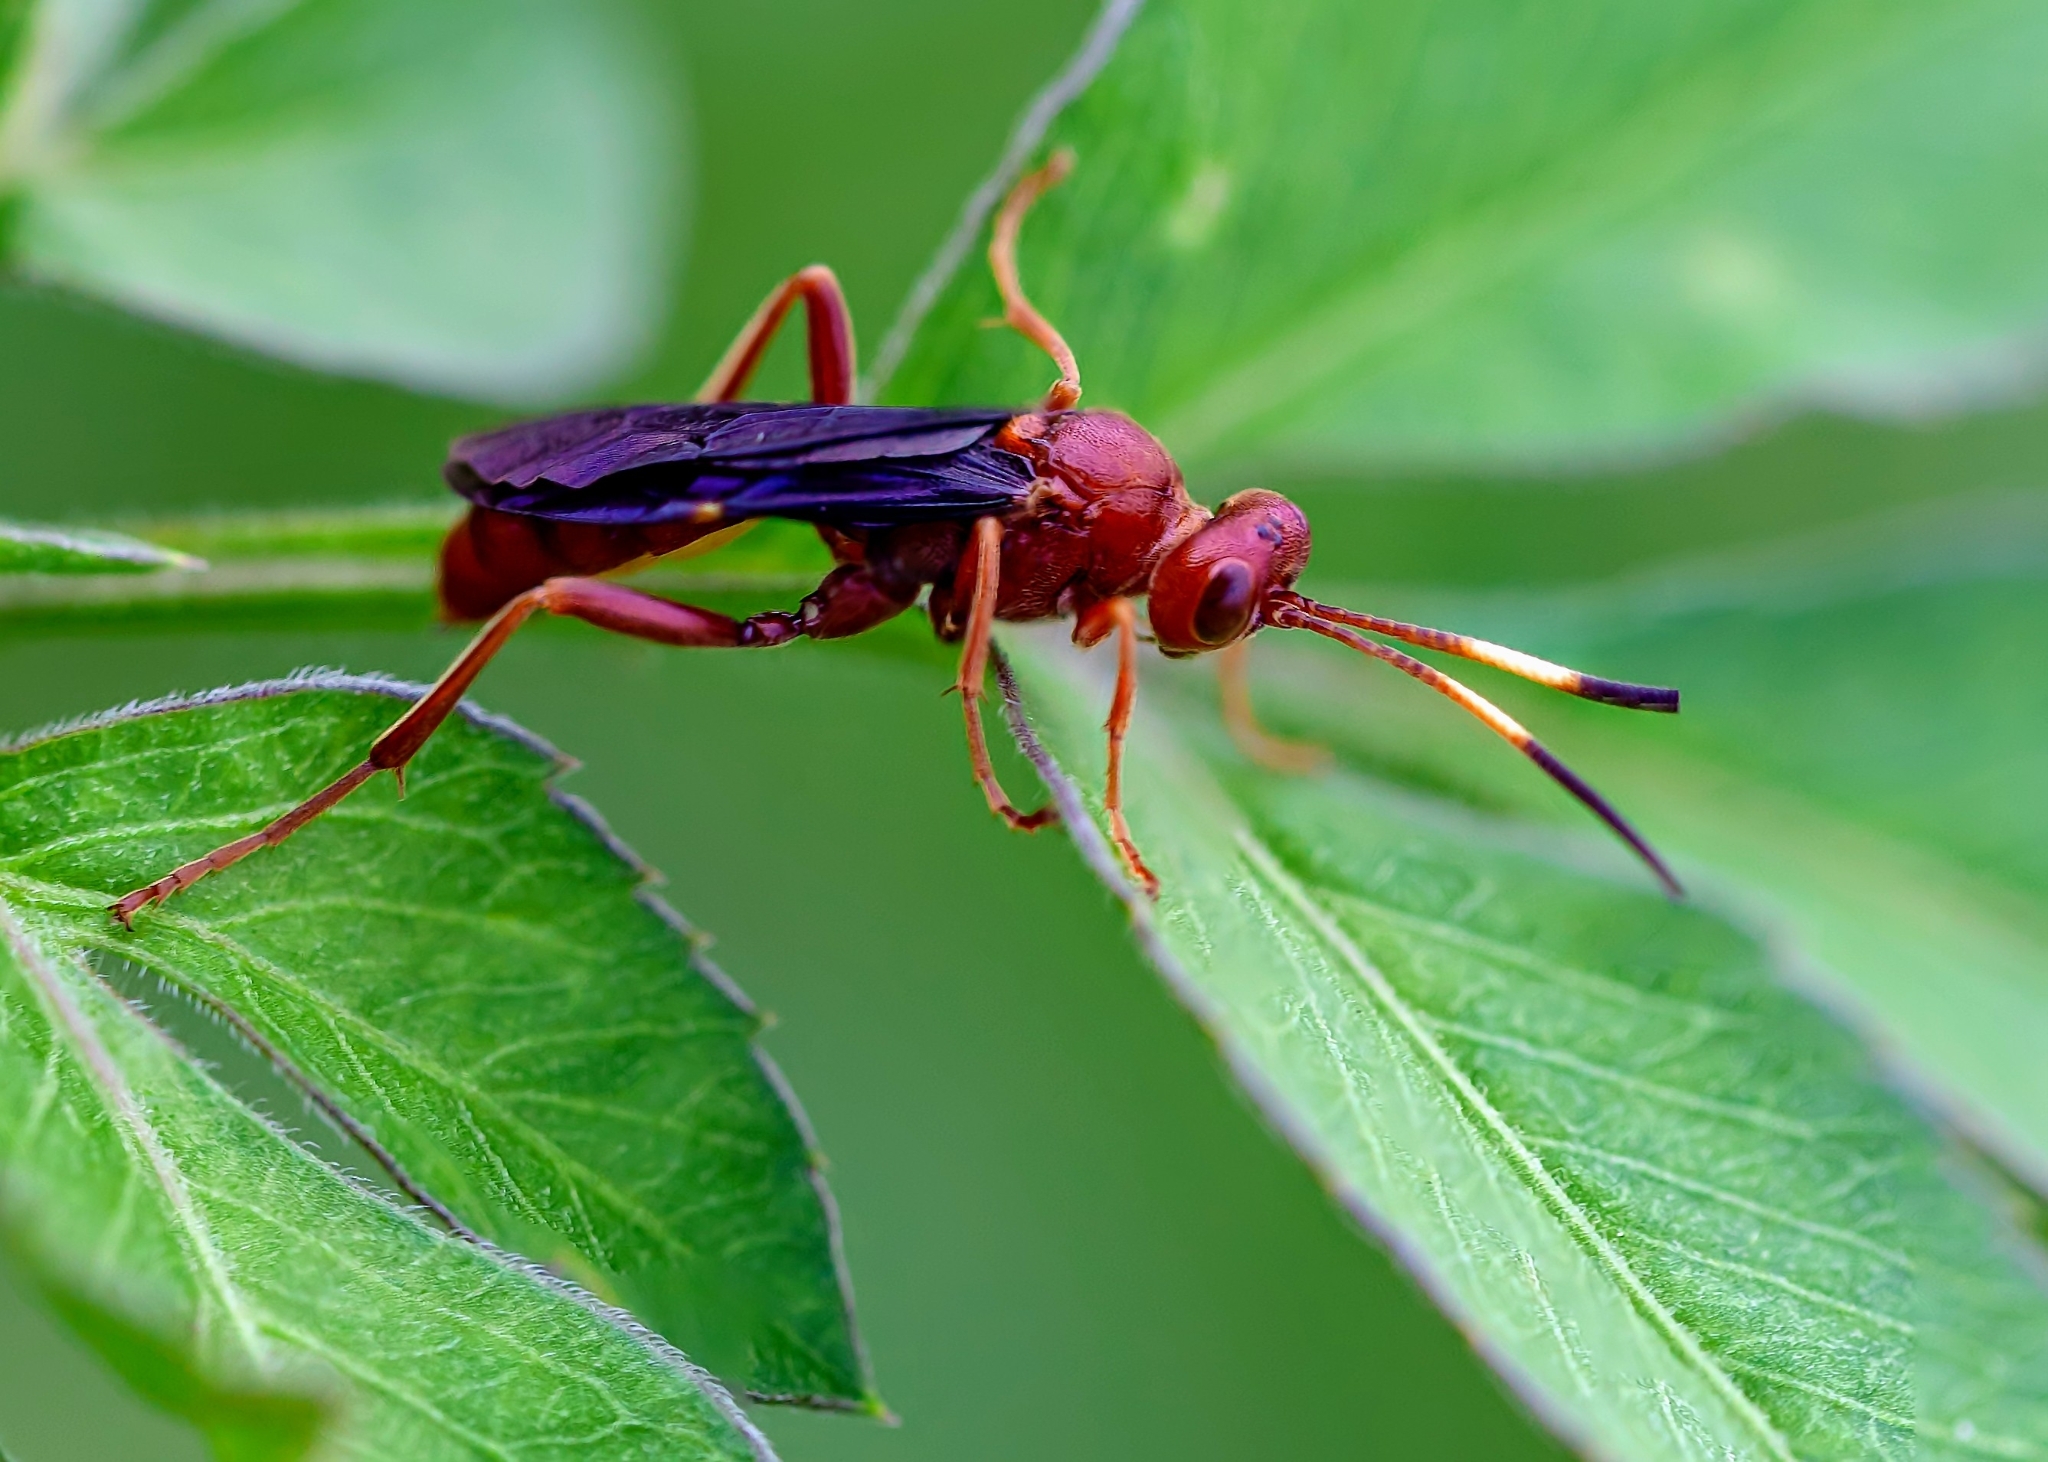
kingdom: Animalia
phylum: Arthropoda
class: Insecta
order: Hymenoptera
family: Ichneumonidae
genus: Trogomorpha
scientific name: Trogomorpha trogiformis
